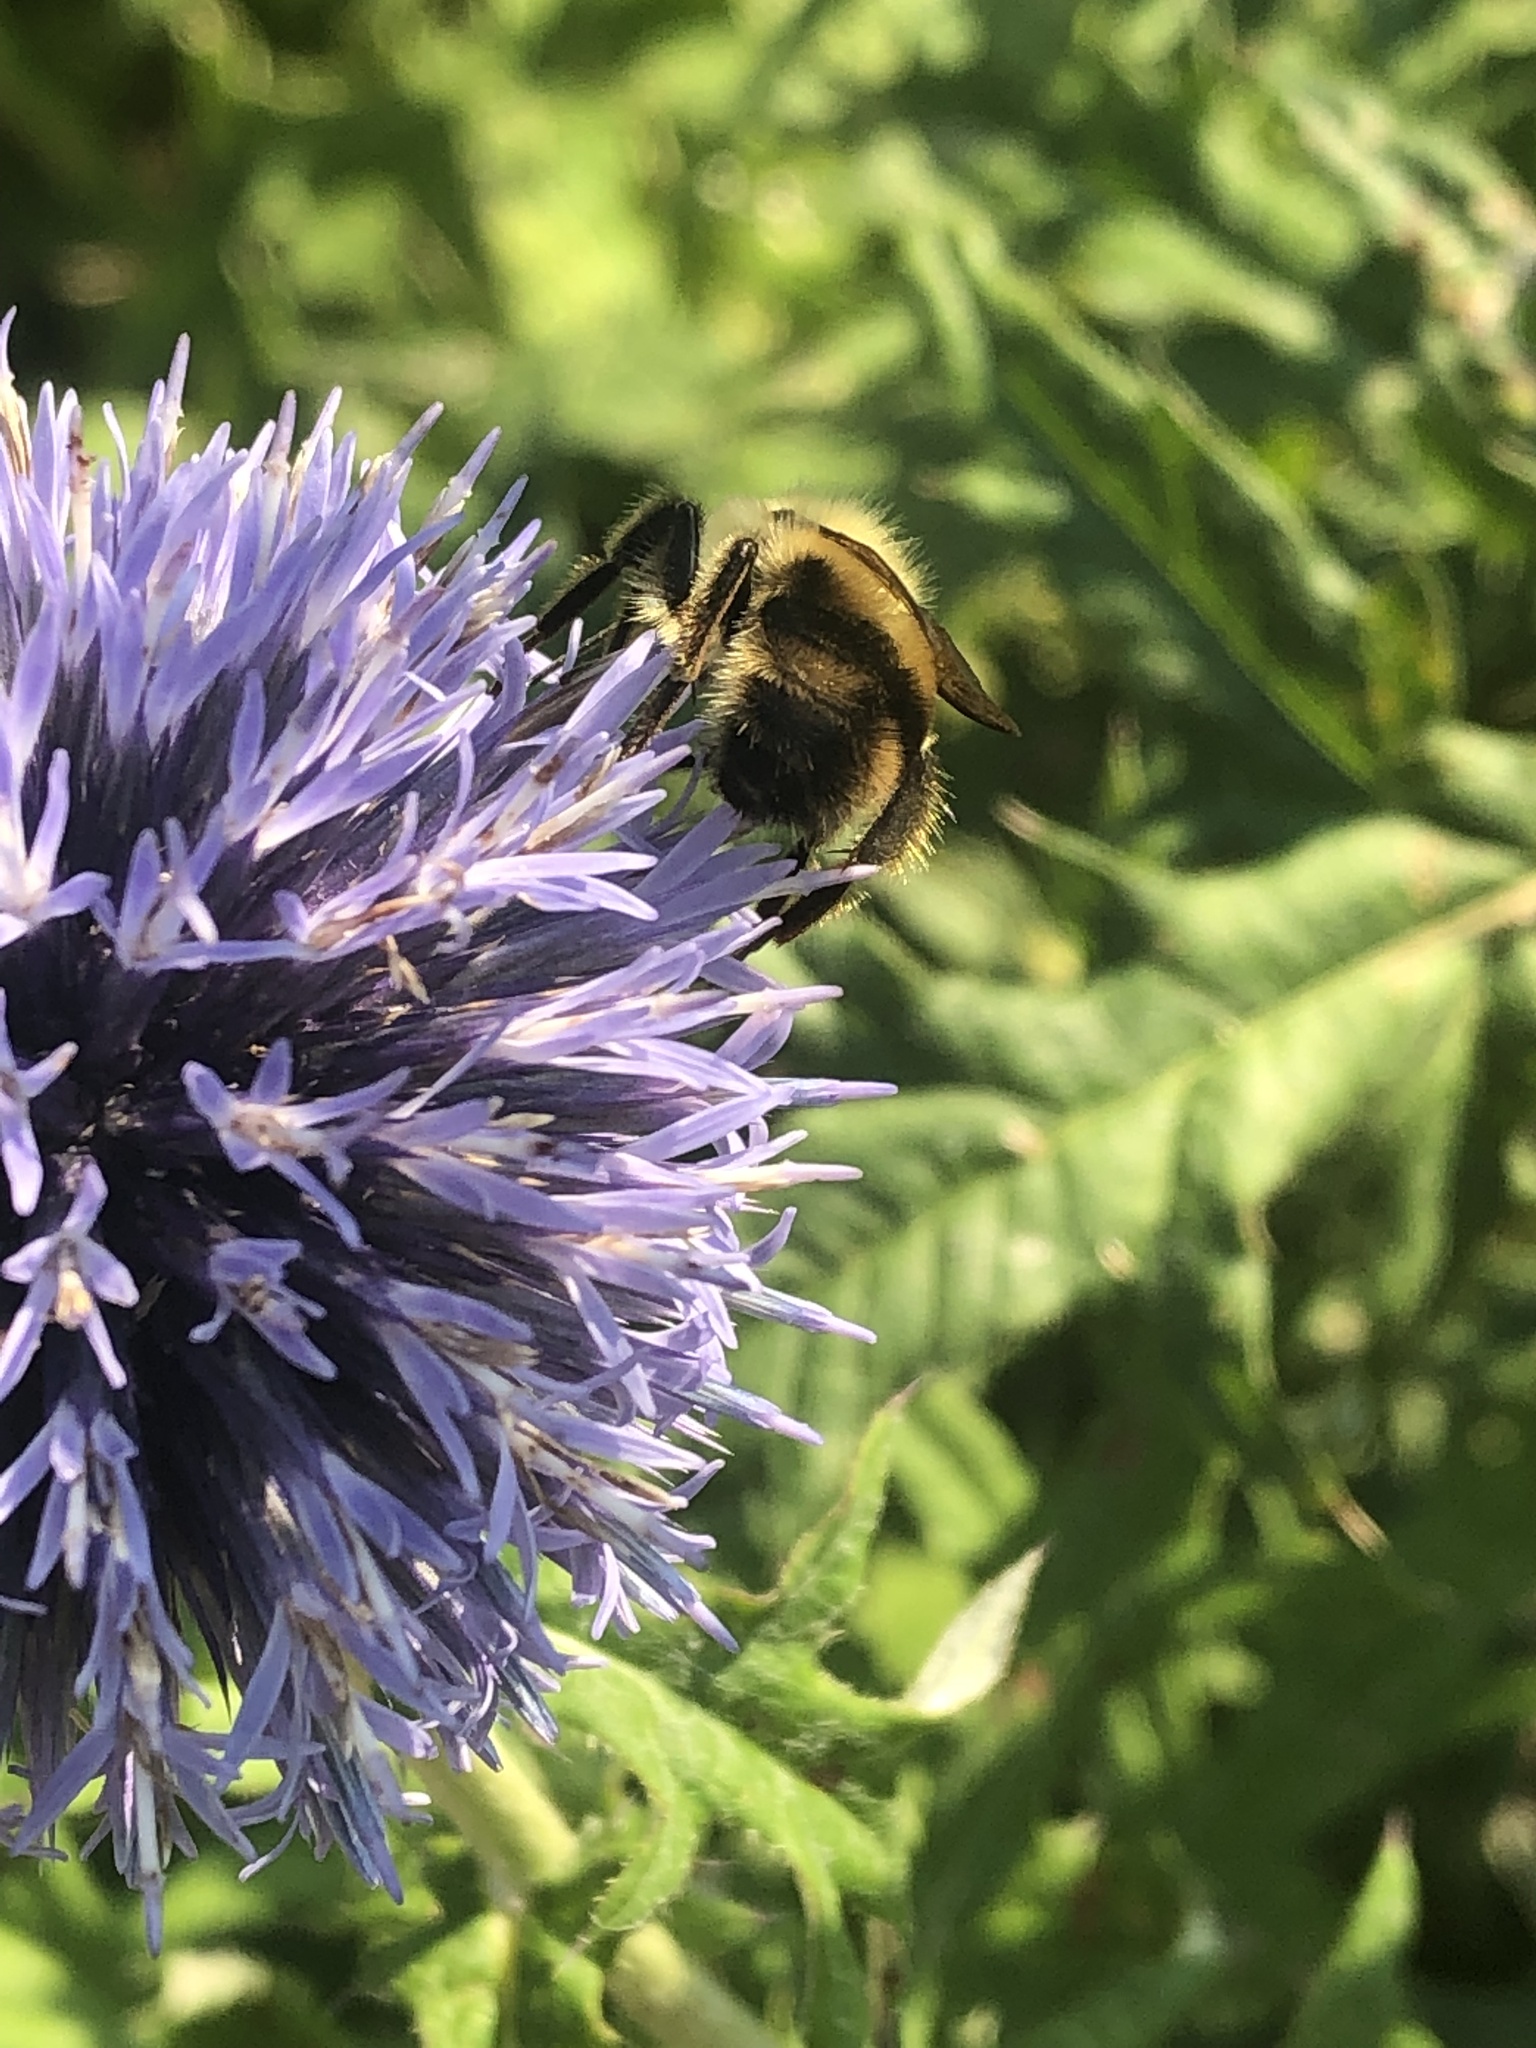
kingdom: Animalia
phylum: Arthropoda
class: Insecta
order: Hymenoptera
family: Apidae
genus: Bombus
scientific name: Bombus bimaculatus
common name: Two-spotted bumble bee
